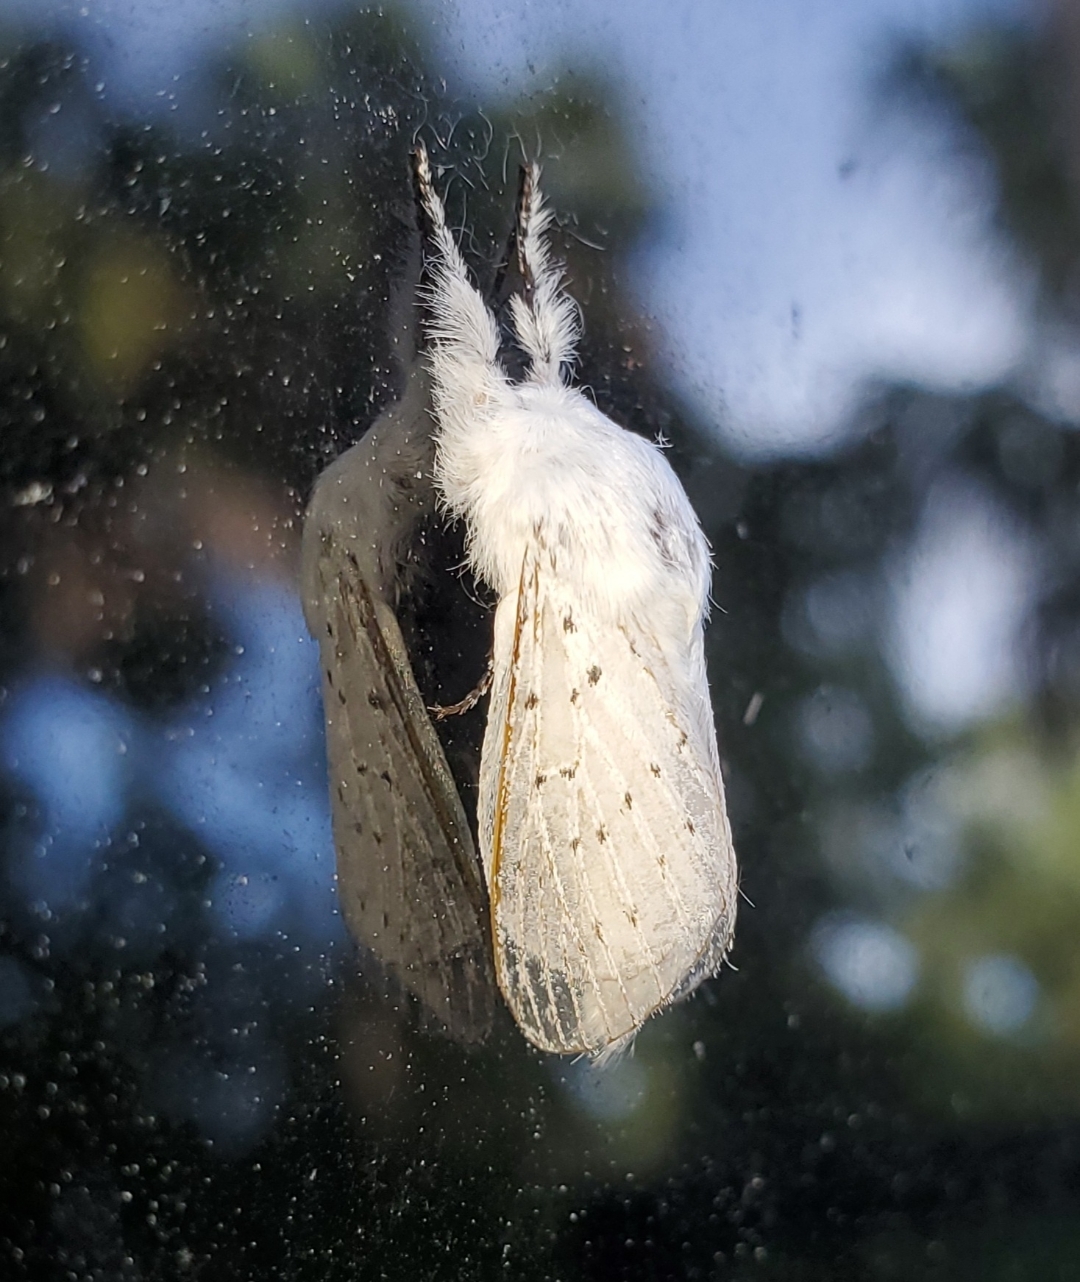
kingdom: Animalia
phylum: Arthropoda
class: Insecta
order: Lepidoptera
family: Lasiocampidae
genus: Artace
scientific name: Artace cribrarius
